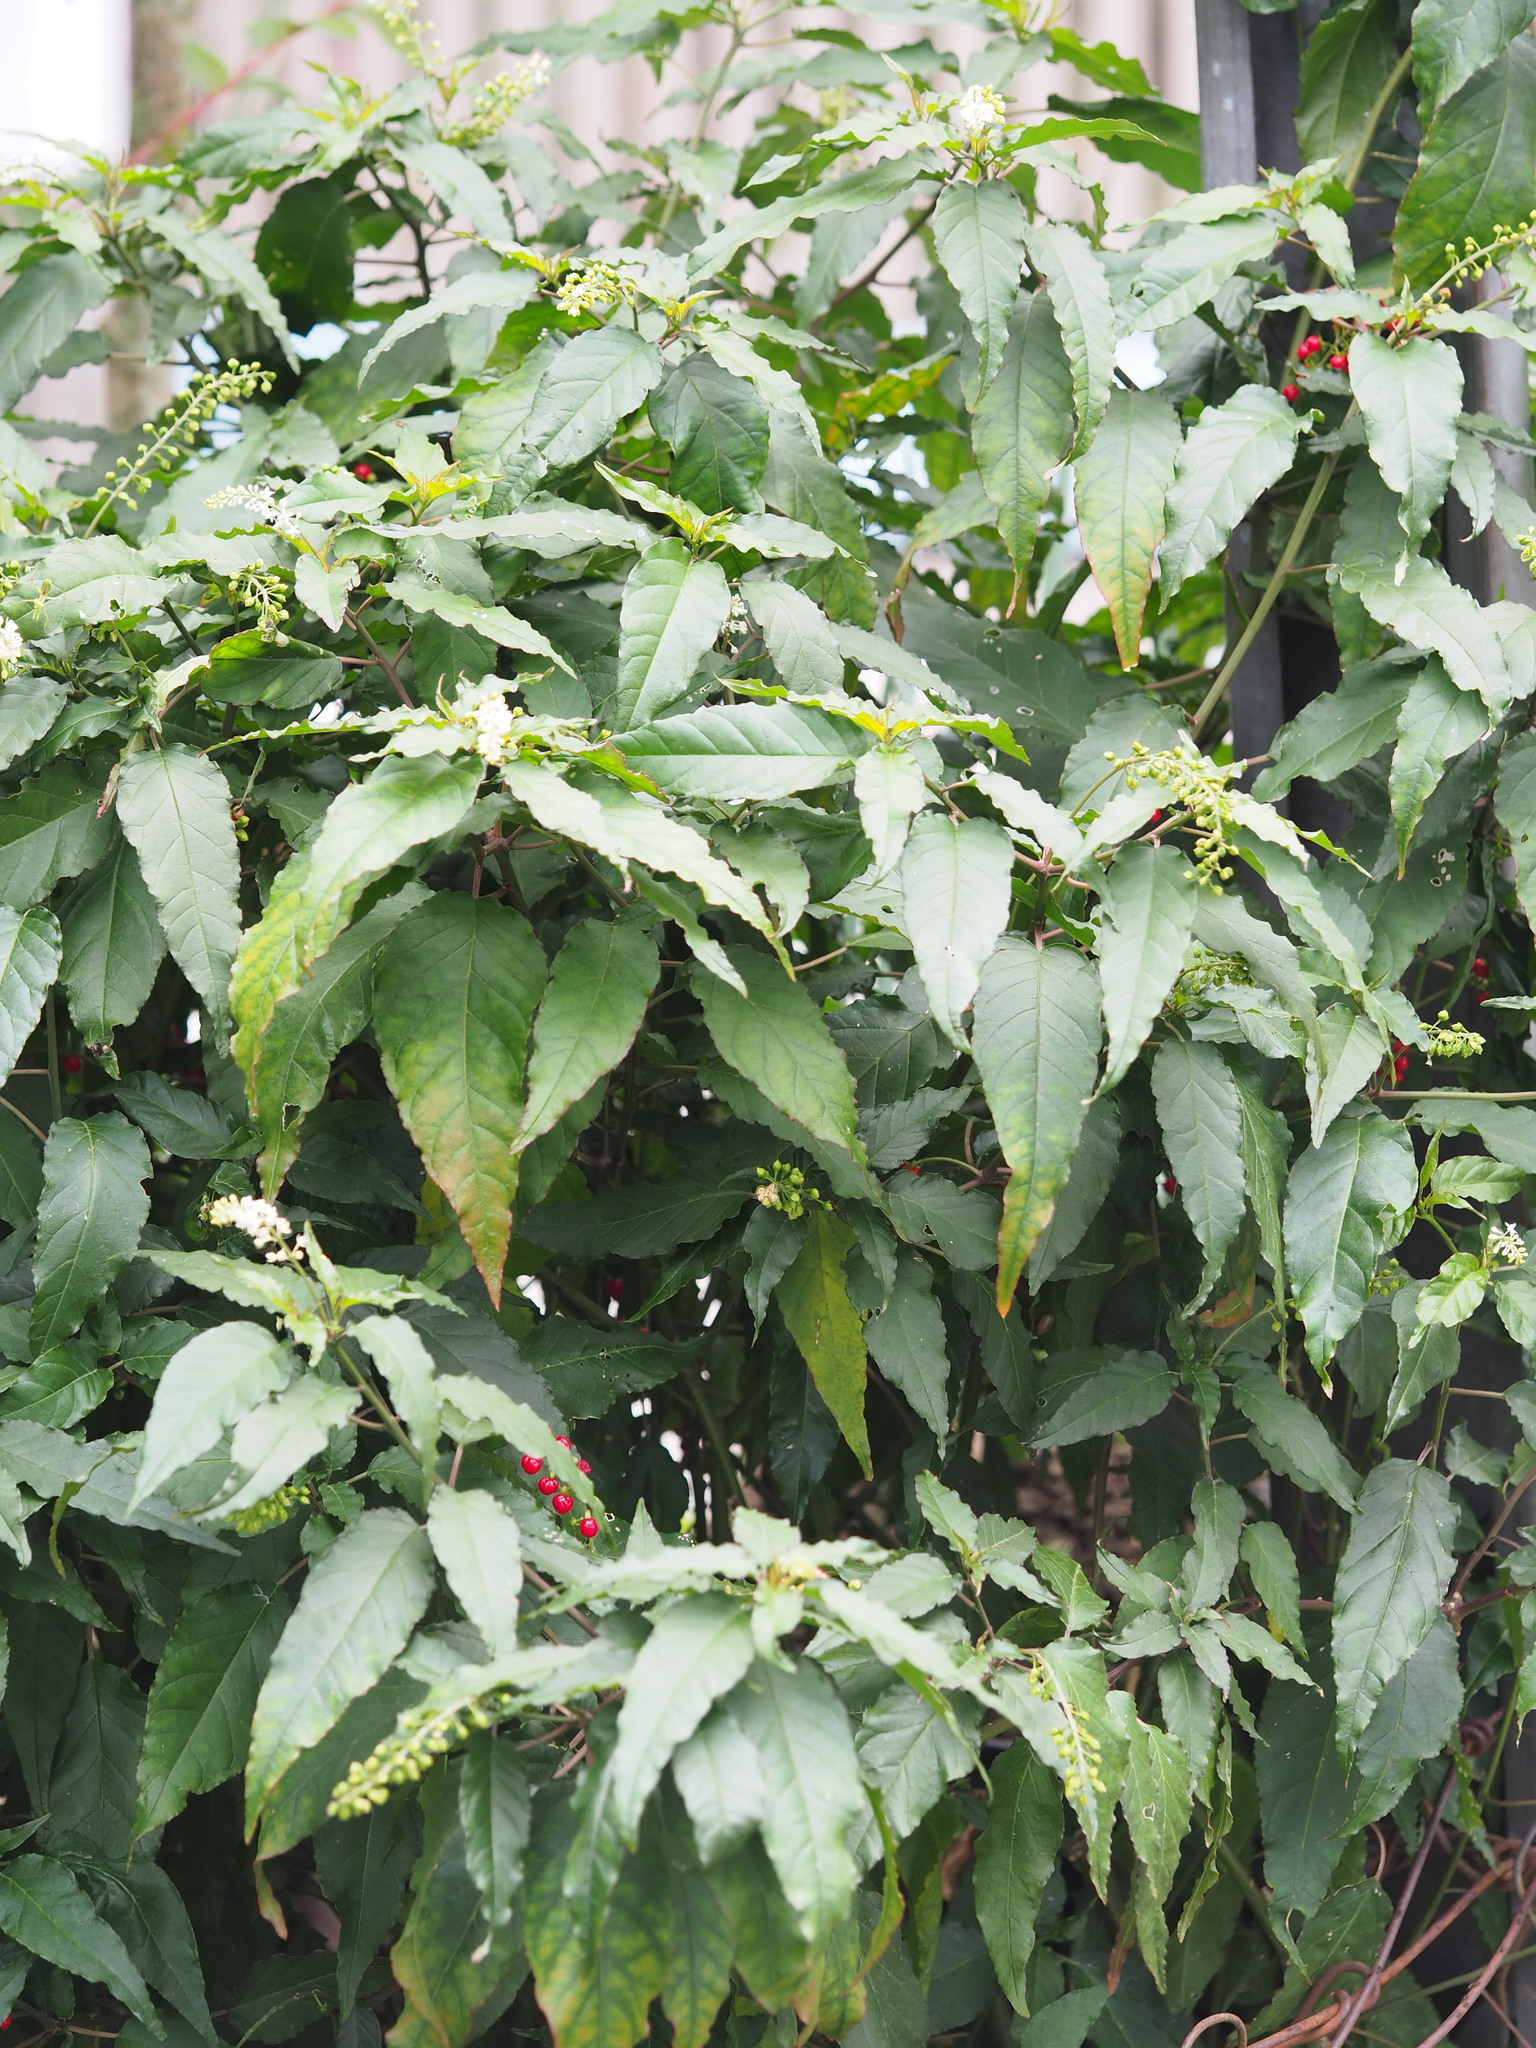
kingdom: Plantae
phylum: Tracheophyta
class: Magnoliopsida
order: Caryophyllales
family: Phytolaccaceae
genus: Rivina
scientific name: Rivina humilis
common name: Rougeplant
